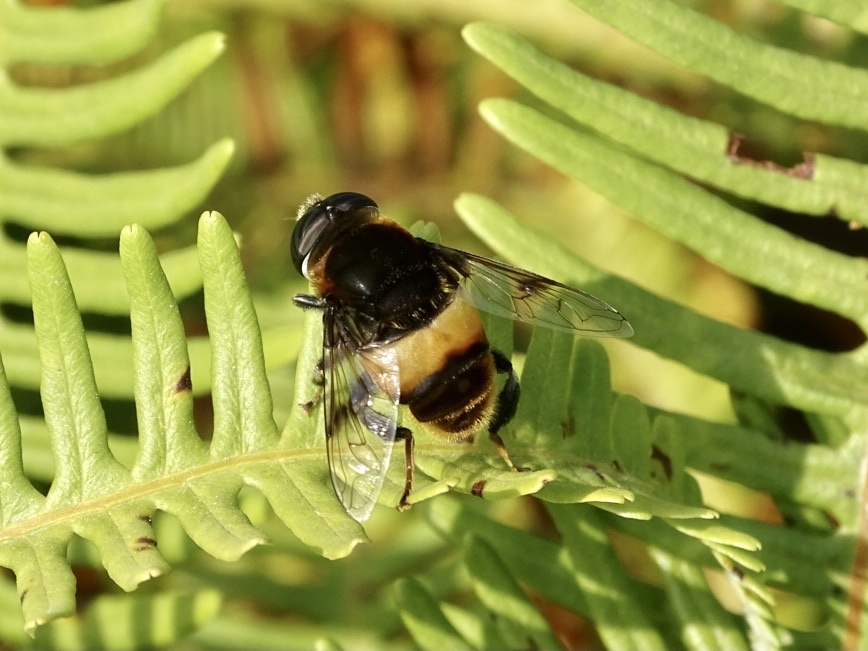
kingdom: Animalia
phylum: Arthropoda
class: Insecta
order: Diptera
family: Syrphidae
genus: Phytomia
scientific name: Phytomia zonata
